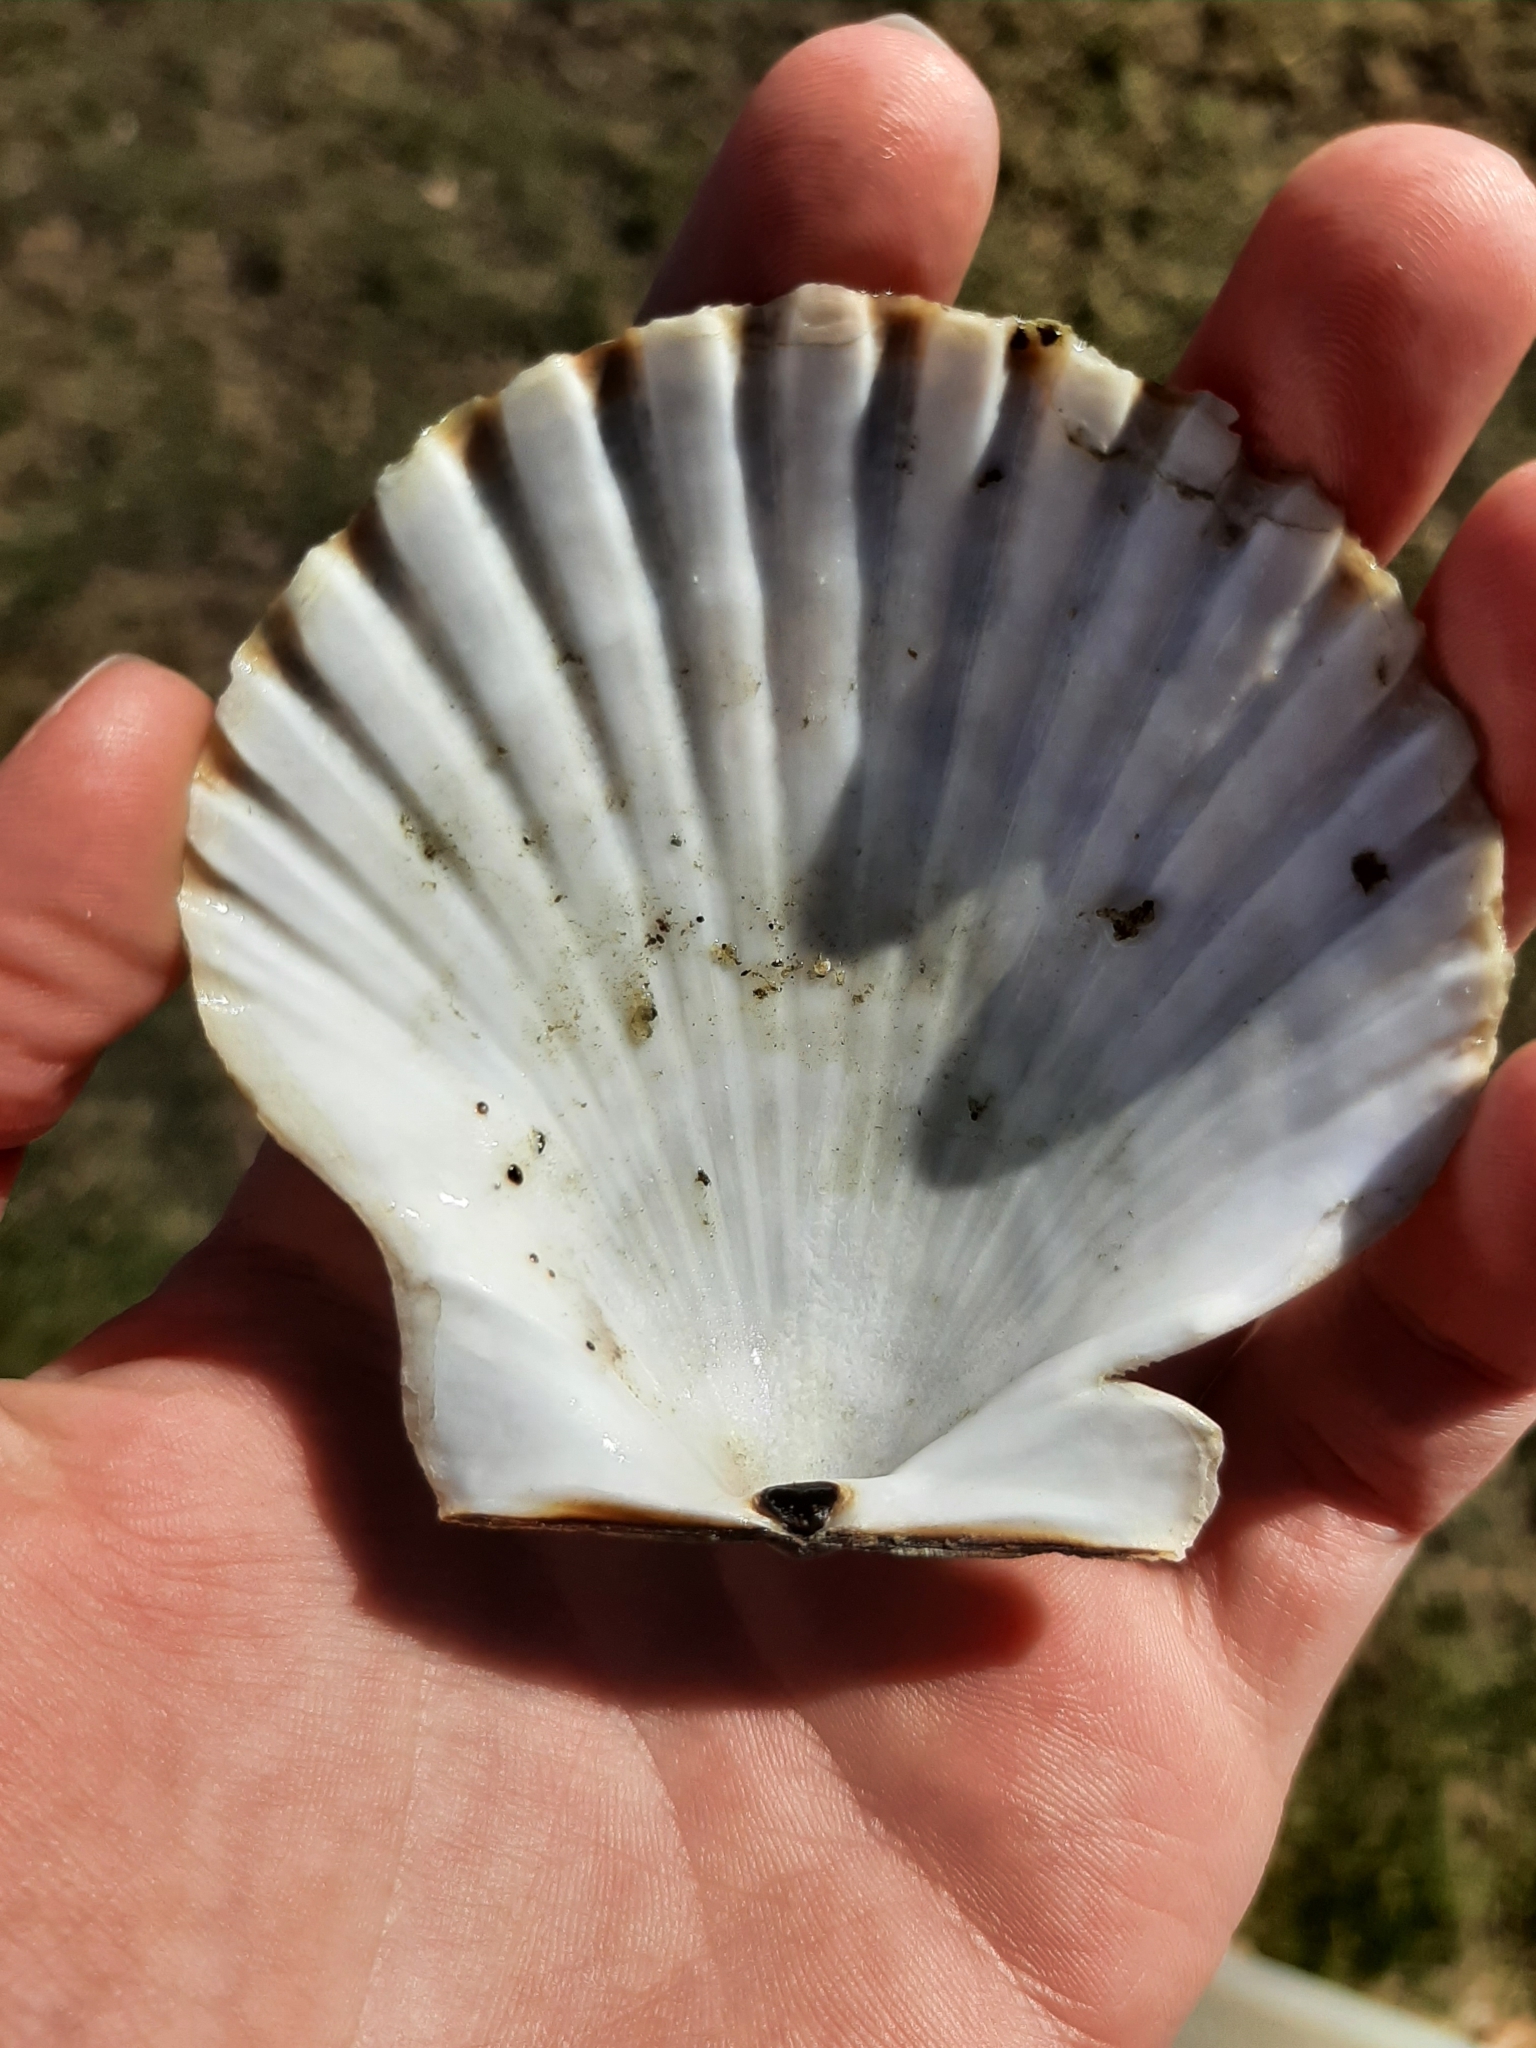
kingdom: Animalia
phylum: Mollusca
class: Bivalvia
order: Pectinida
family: Pectinidae
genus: Argopecten
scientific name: Argopecten irradians
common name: Atlantic bay scallop
